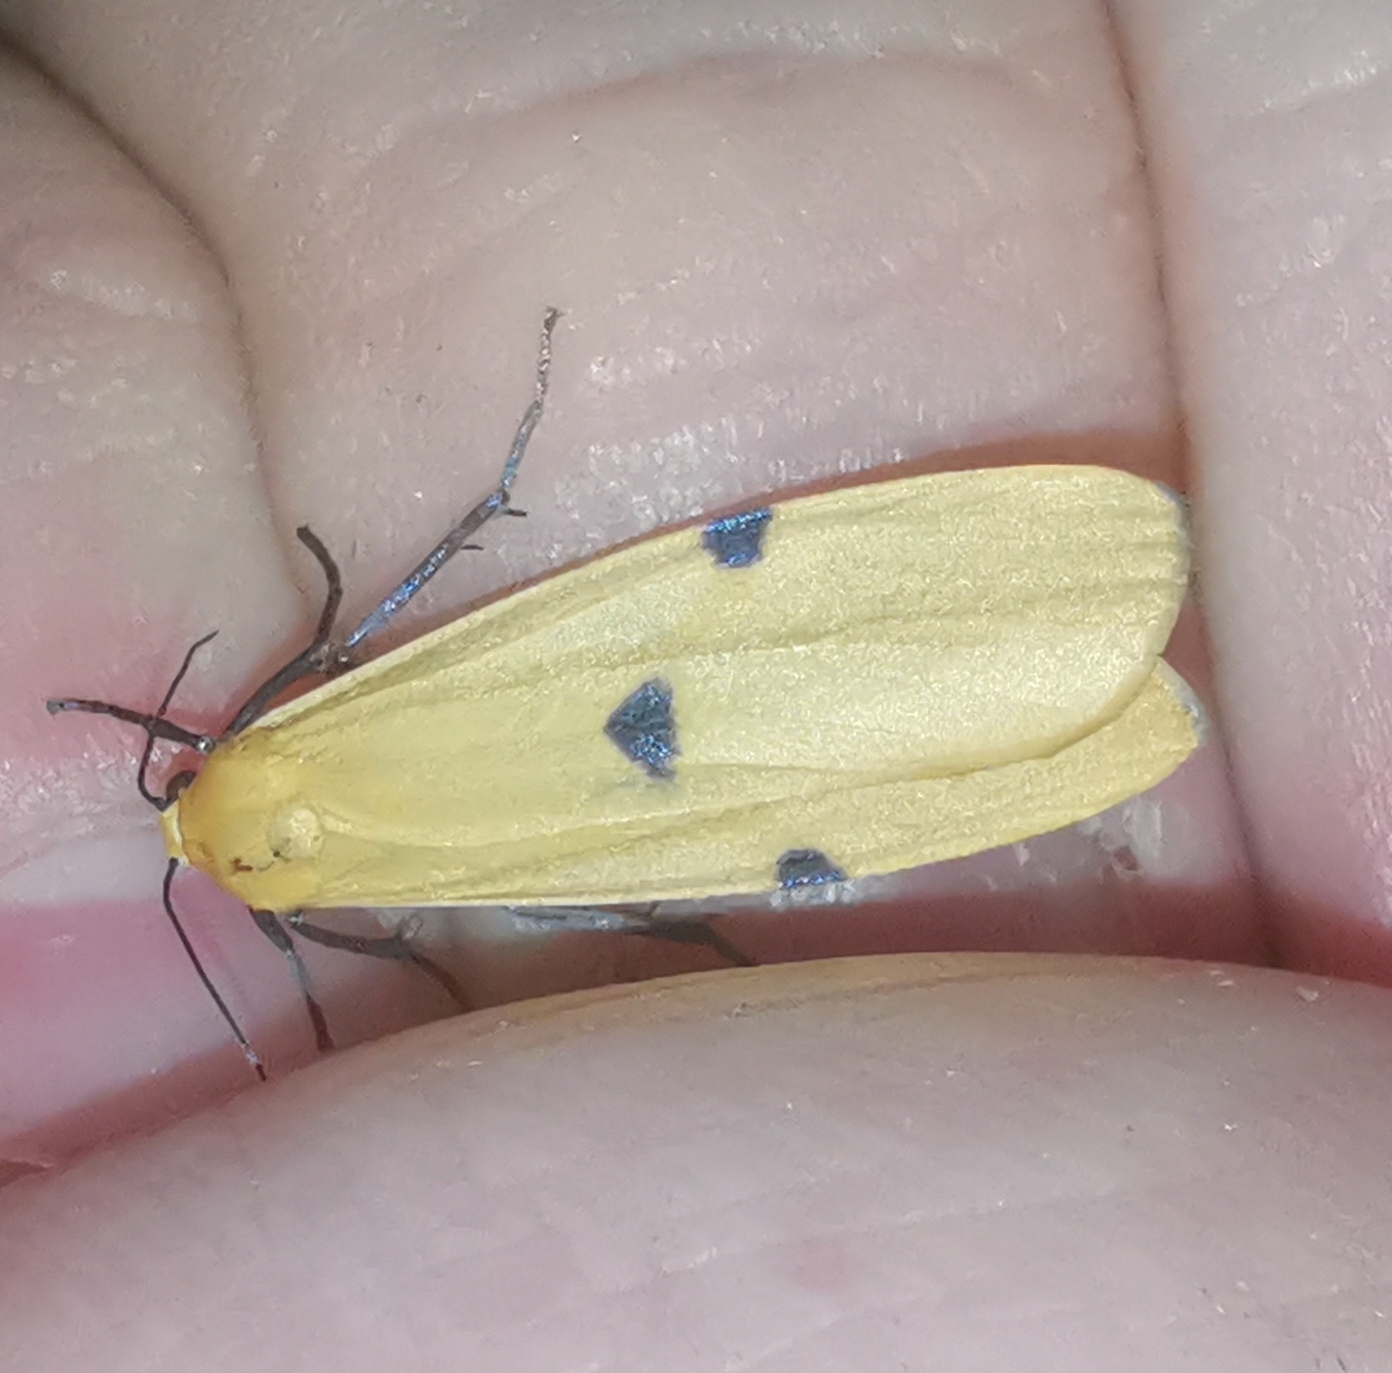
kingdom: Animalia
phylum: Arthropoda
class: Insecta
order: Lepidoptera
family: Erebidae
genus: Lithosia
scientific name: Lithosia quadra
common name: Four-spotted footman
